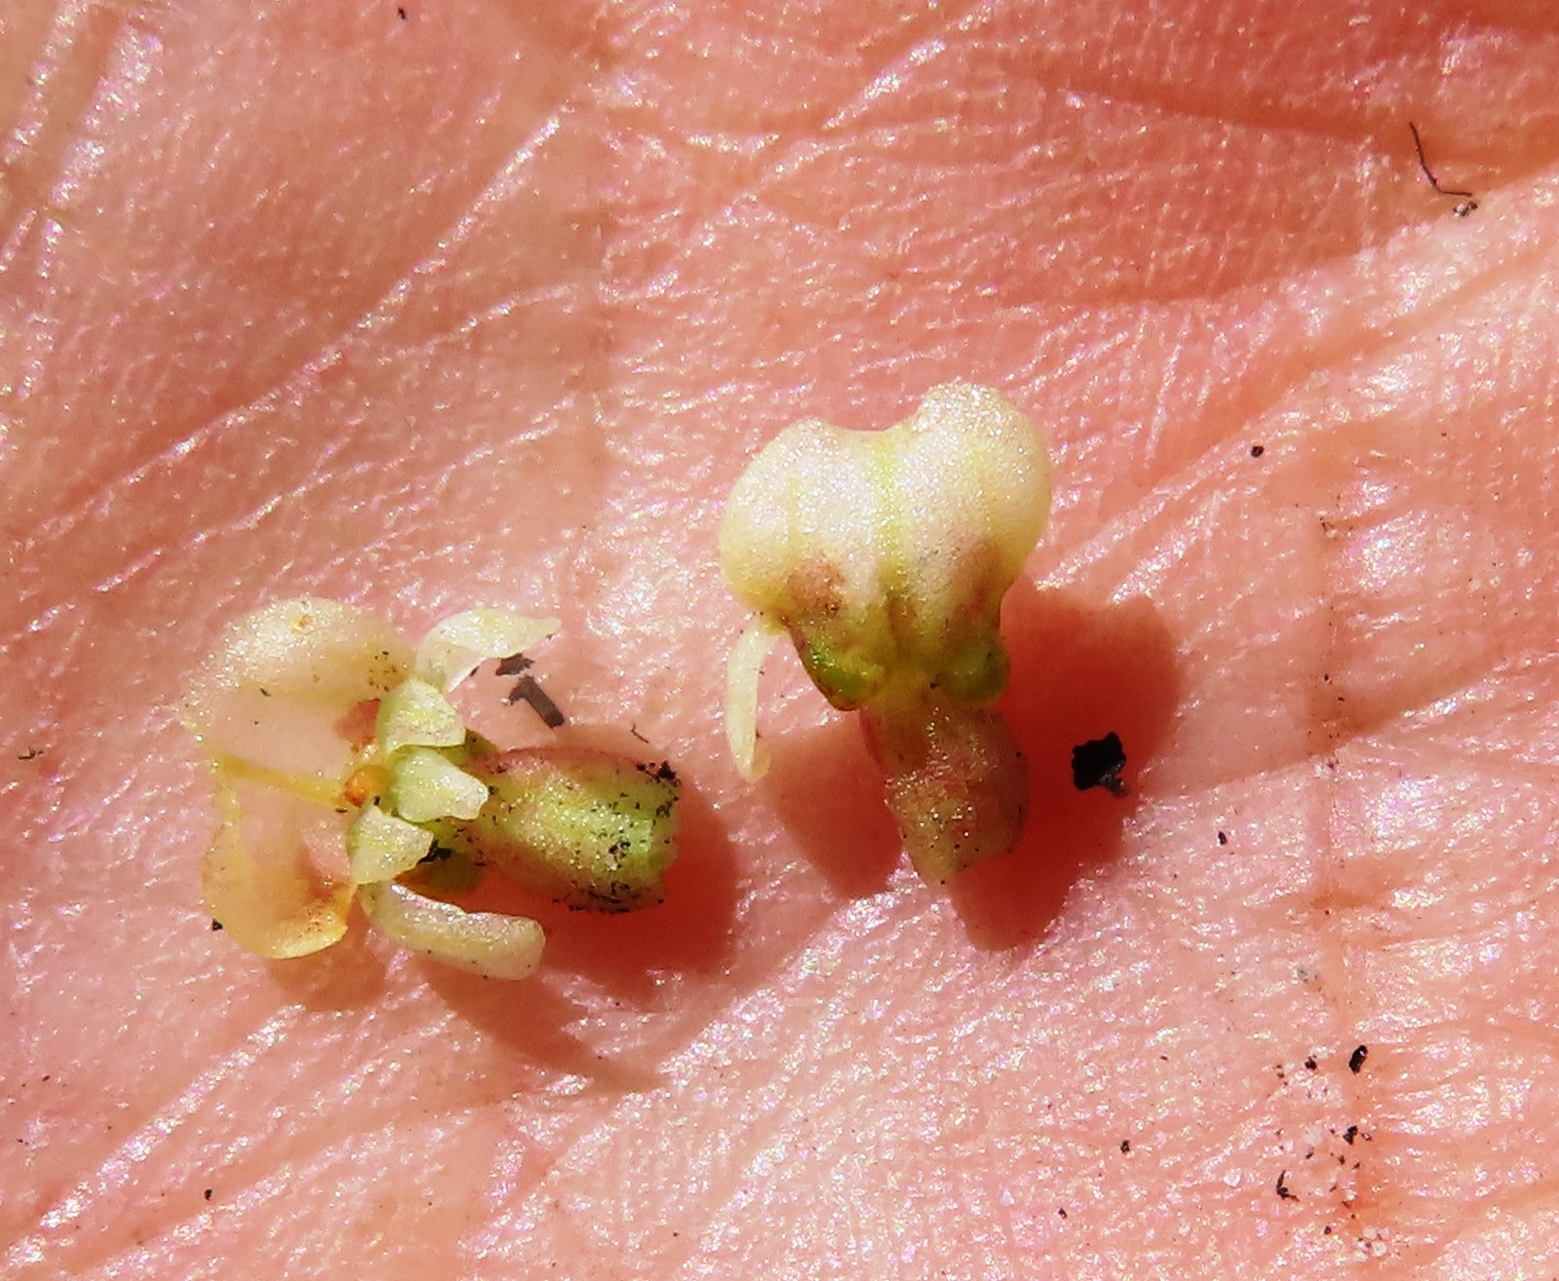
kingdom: Plantae
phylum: Tracheophyta
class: Liliopsida
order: Asparagales
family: Orchidaceae
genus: Satyrium
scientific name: Satyrium bicallosum
